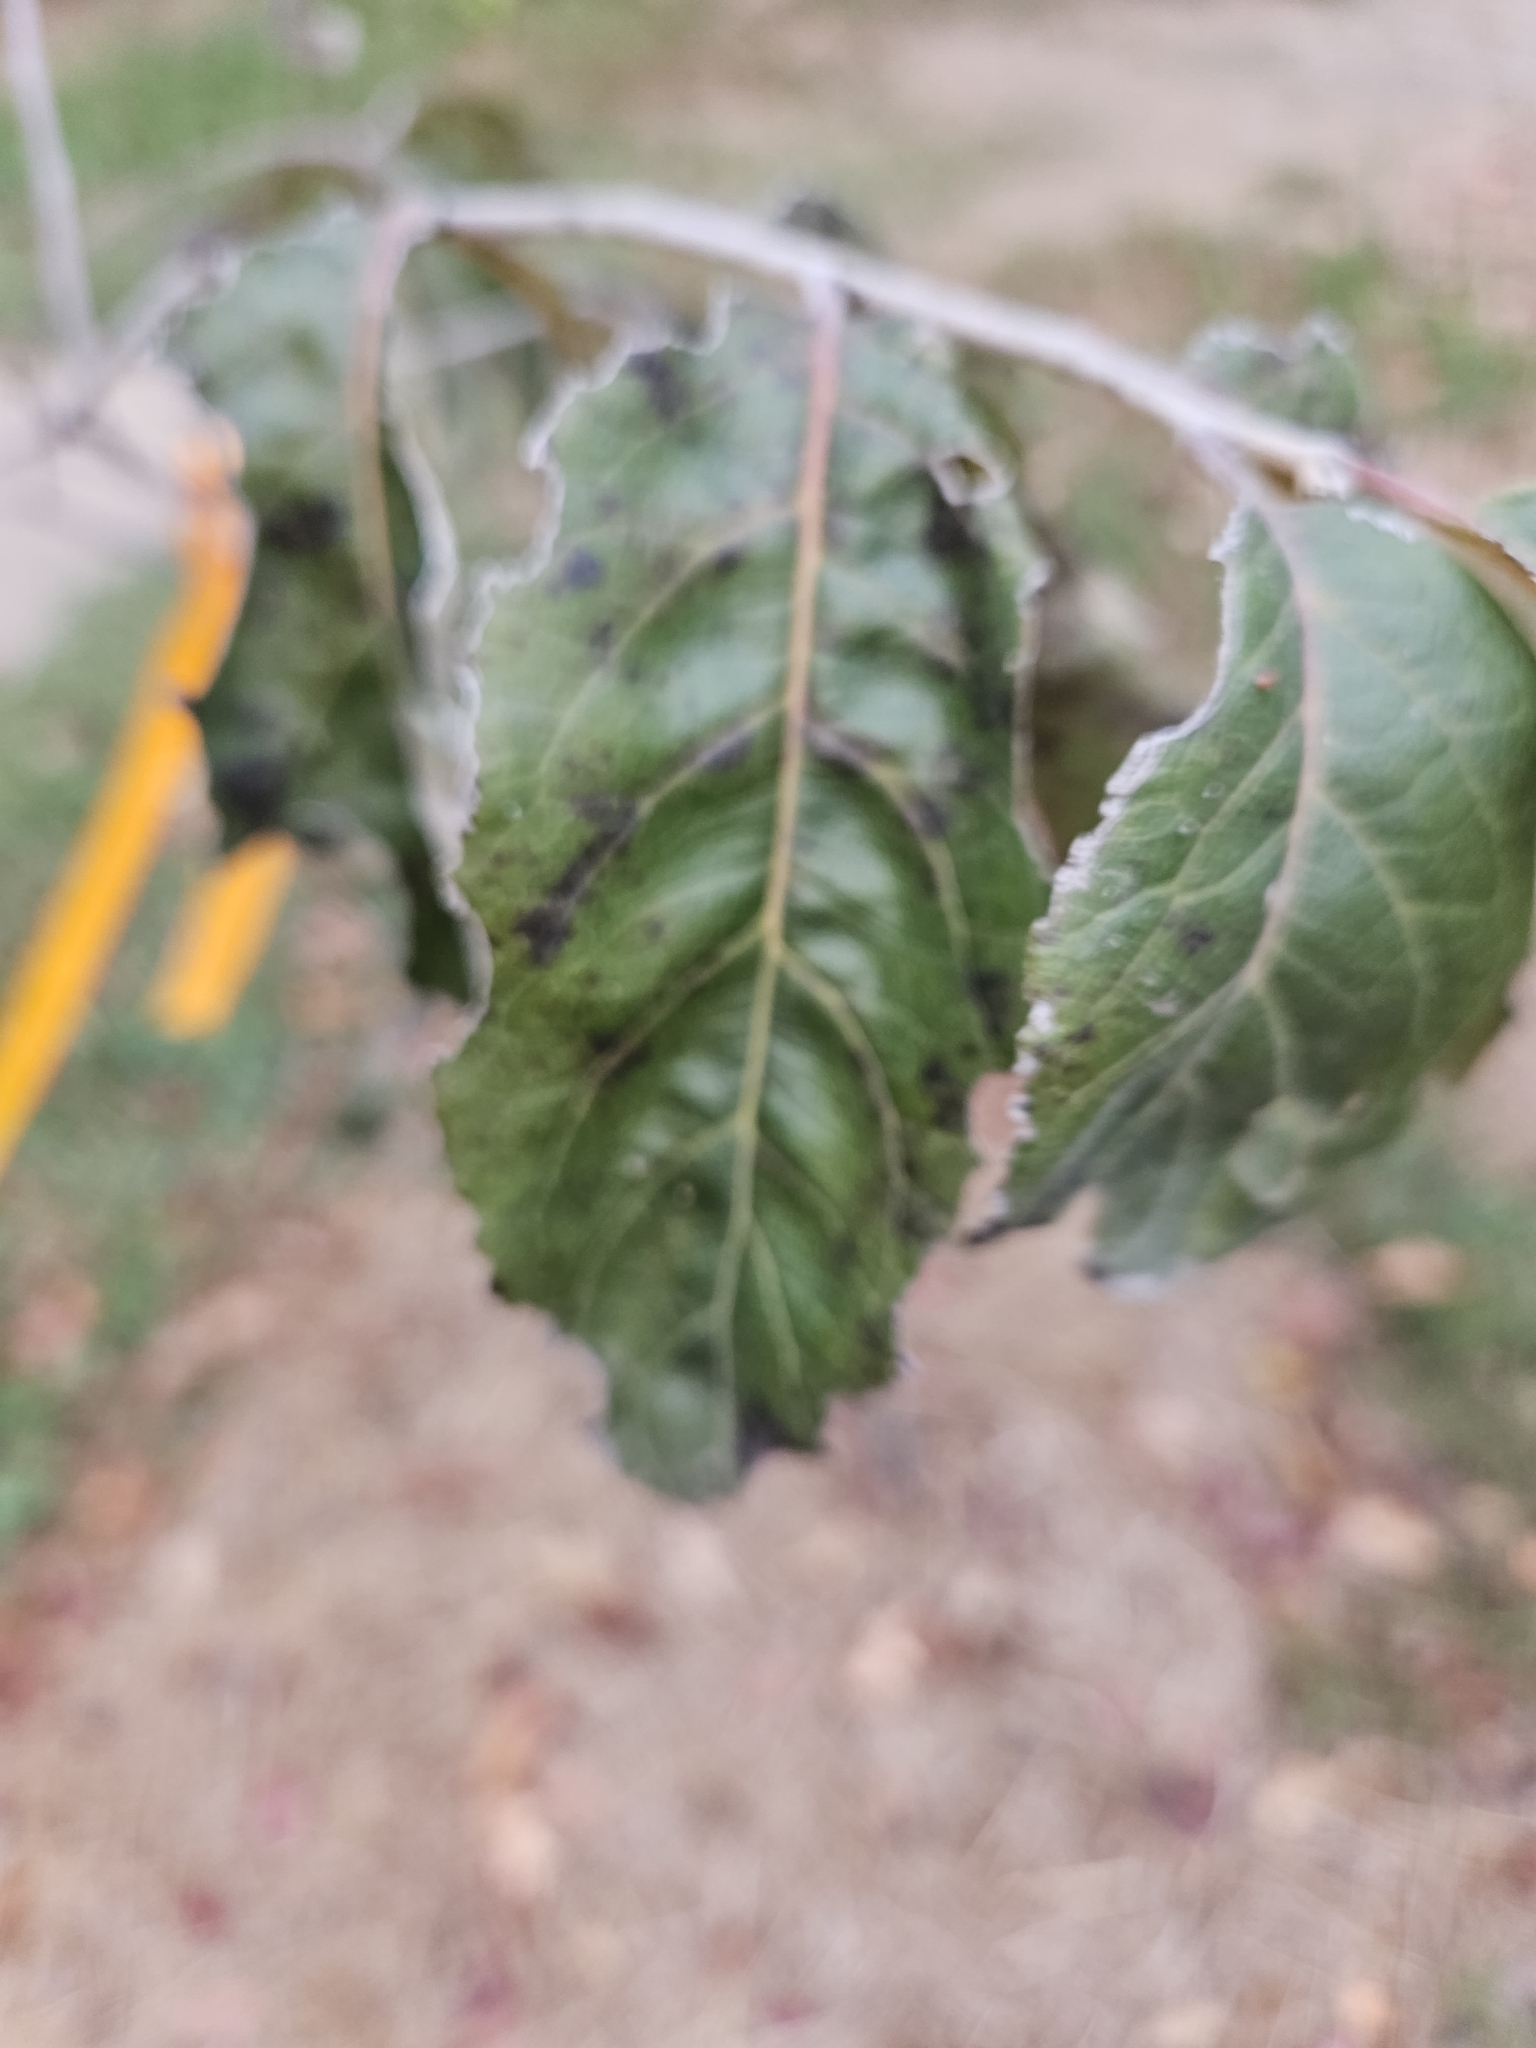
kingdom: Plantae
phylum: Tracheophyta
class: Magnoliopsida
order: Ericales
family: Ebenaceae
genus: Diospyros
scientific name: Diospyros virginiana
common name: Persimmon
